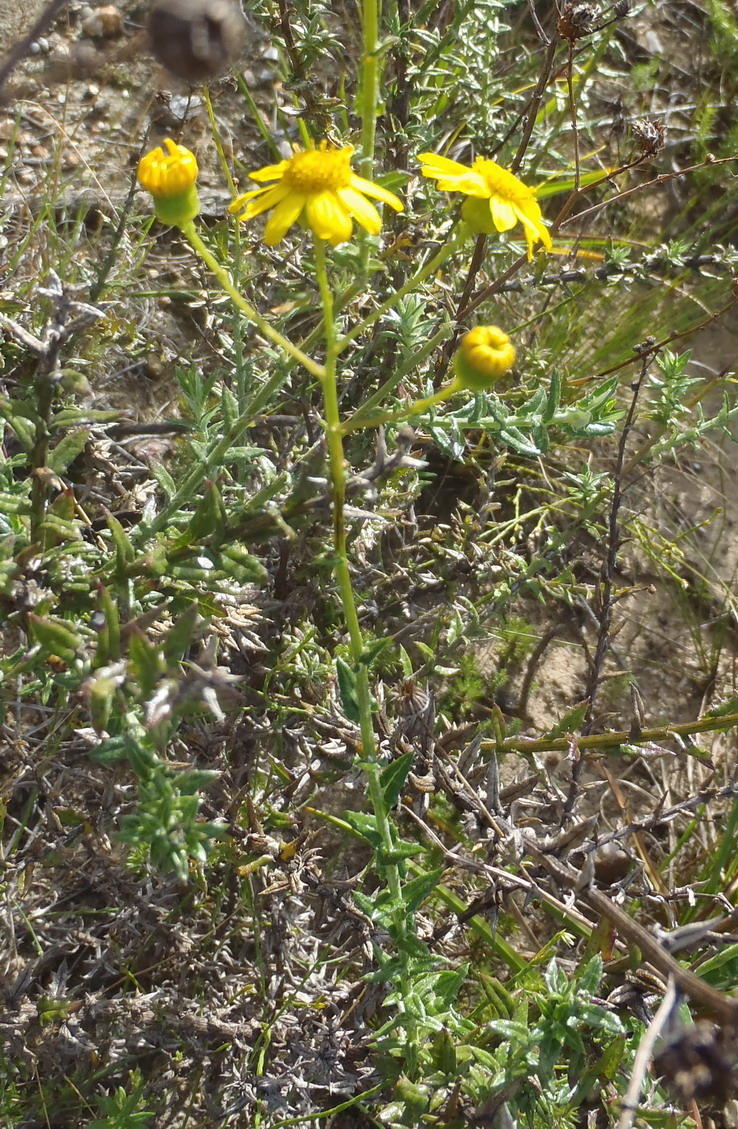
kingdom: Plantae
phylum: Tracheophyta
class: Magnoliopsida
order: Asterales
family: Asteraceae
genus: Senecio
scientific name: Senecio ilicifolius
